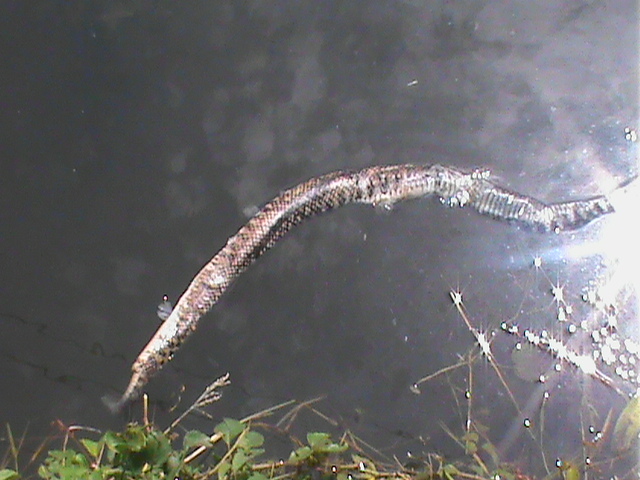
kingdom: Animalia
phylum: Chordata
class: Squamata
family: Colubridae
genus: Fowlea
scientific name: Fowlea piscator
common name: Asiatic water snake
